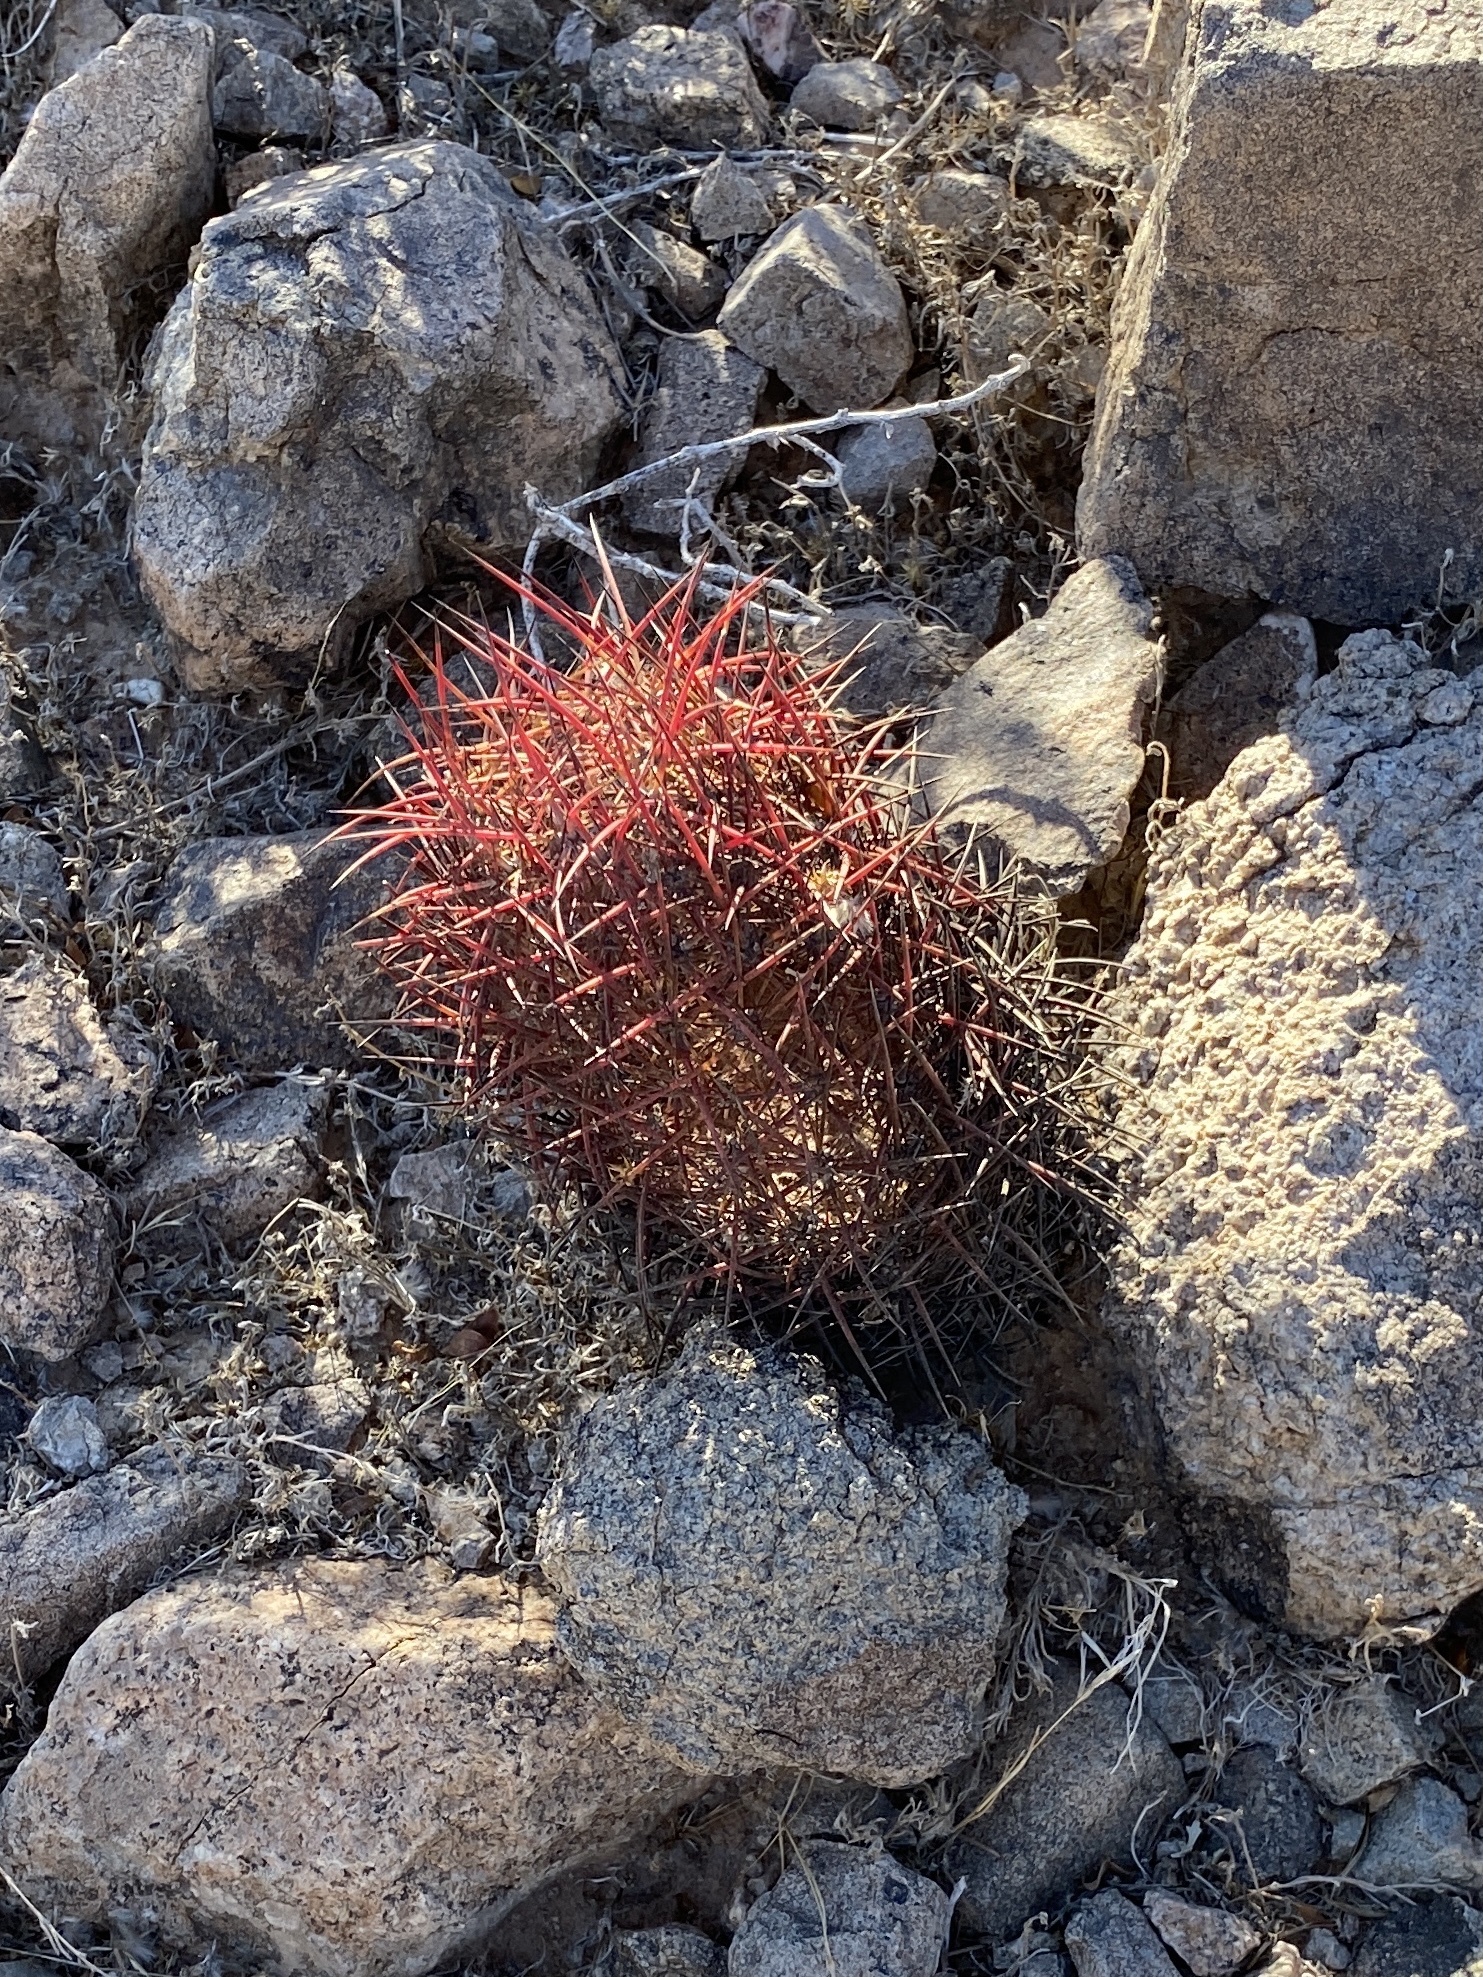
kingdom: Plantae
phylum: Tracheophyta
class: Magnoliopsida
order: Caryophyllales
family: Cactaceae
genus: Sclerocactus
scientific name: Sclerocactus johnsonii
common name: Eight-spine fishhook cactus
